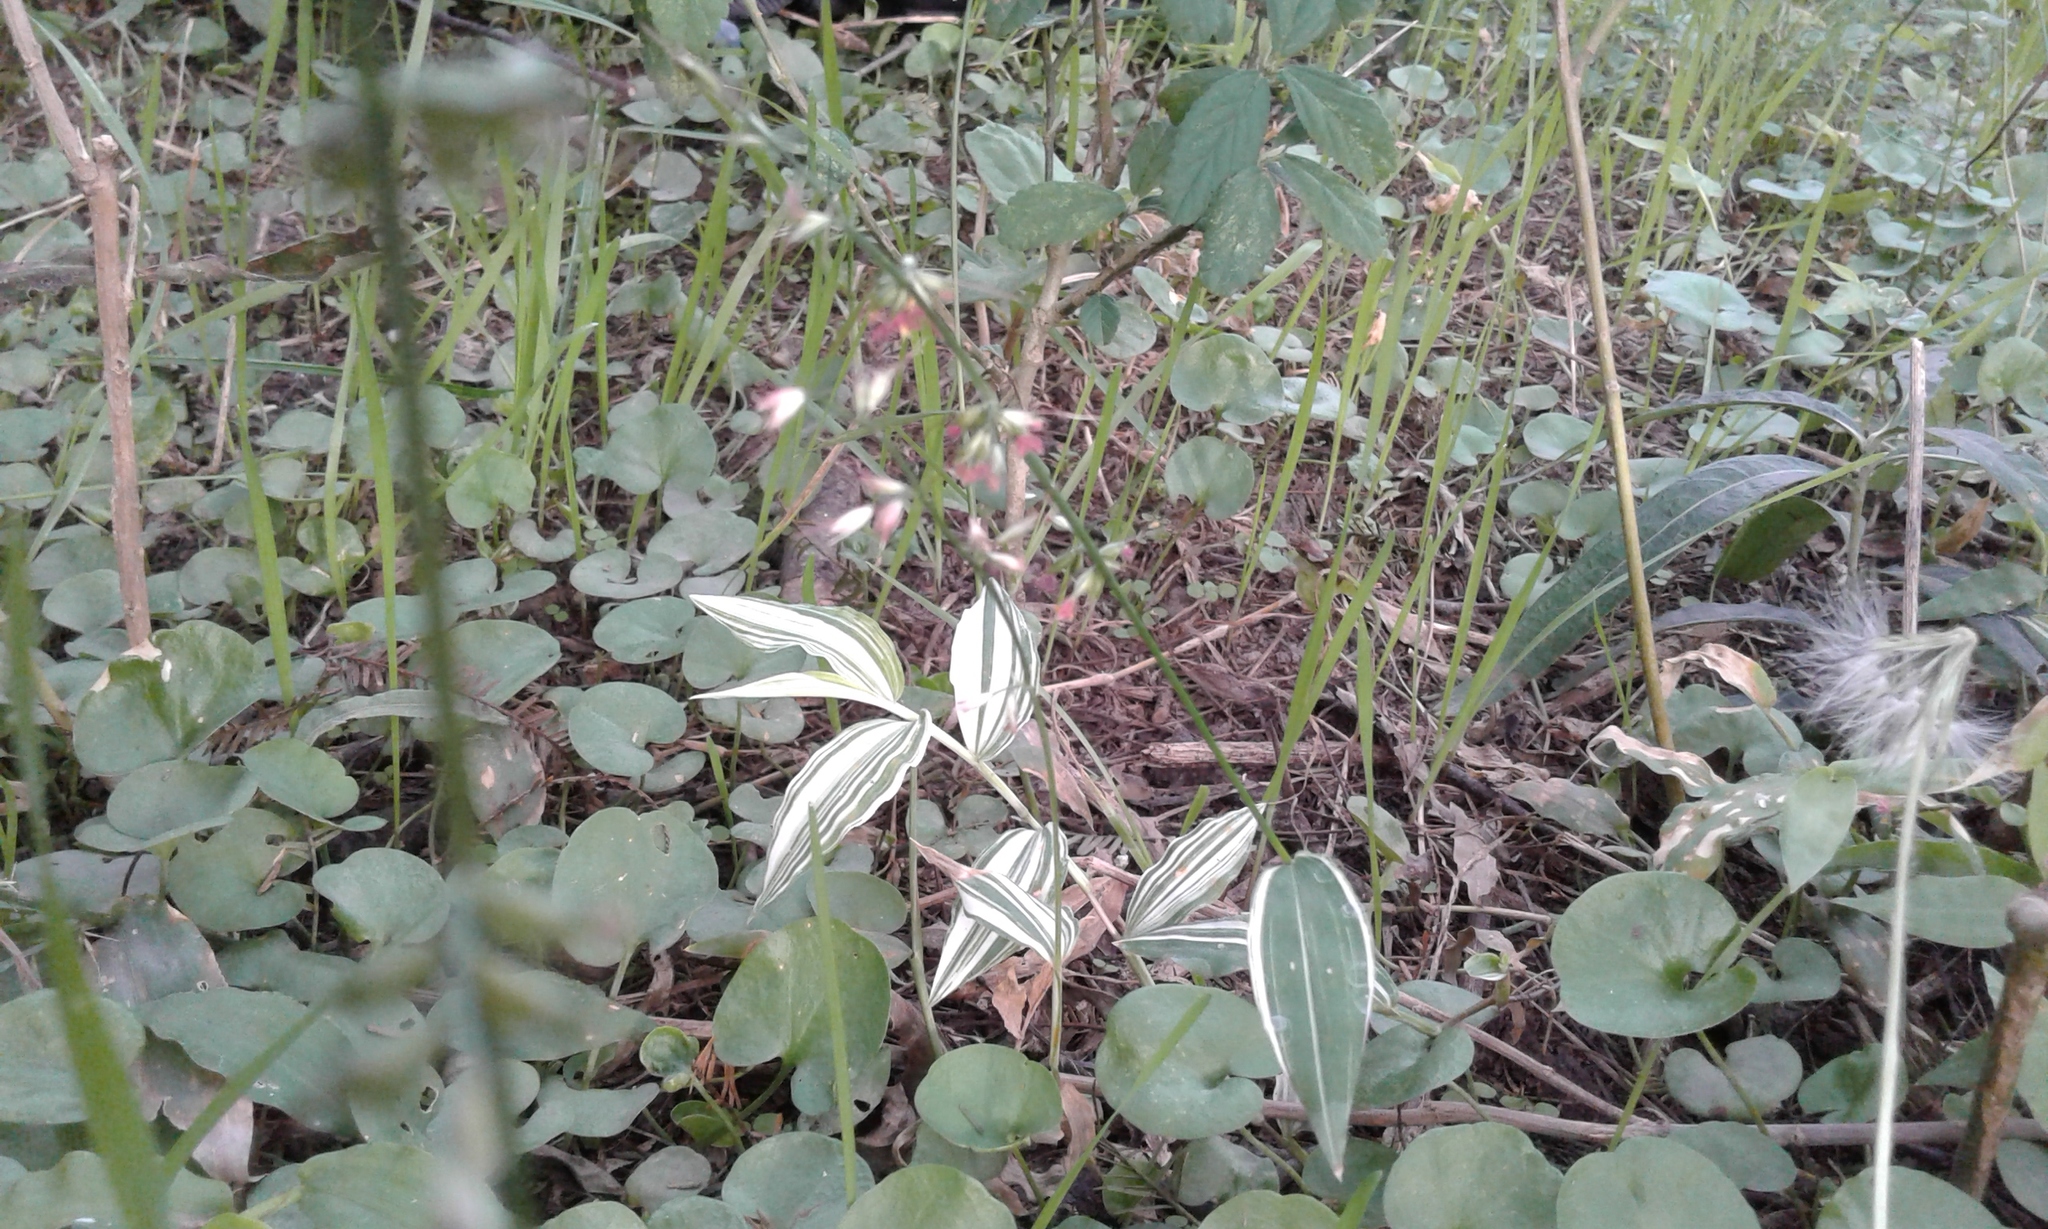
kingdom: Plantae
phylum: Tracheophyta
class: Liliopsida
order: Poales
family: Poaceae
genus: Oplismenus
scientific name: Oplismenus hirtellus
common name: Basketgrass
